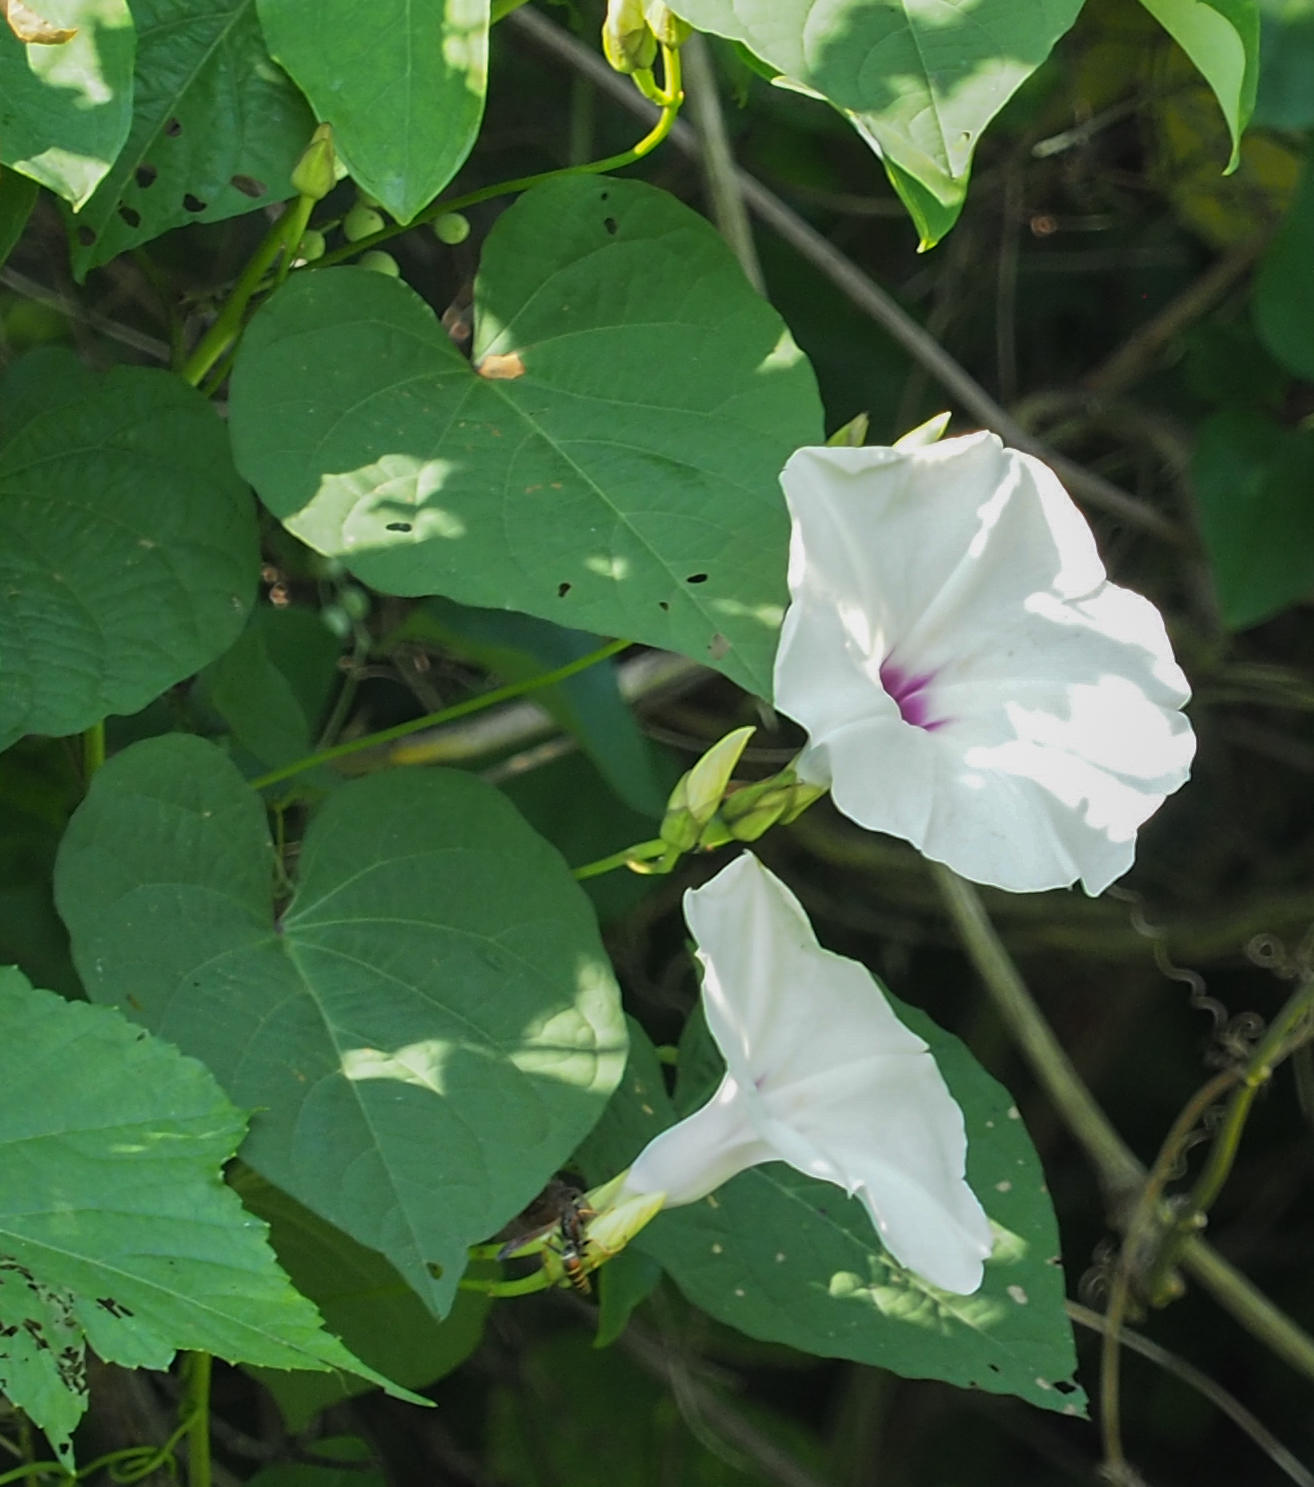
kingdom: Plantae
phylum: Tracheophyta
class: Magnoliopsida
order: Solanales
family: Convolvulaceae
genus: Ipomoea
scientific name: Ipomoea pandurata
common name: Man-of-the-earth
